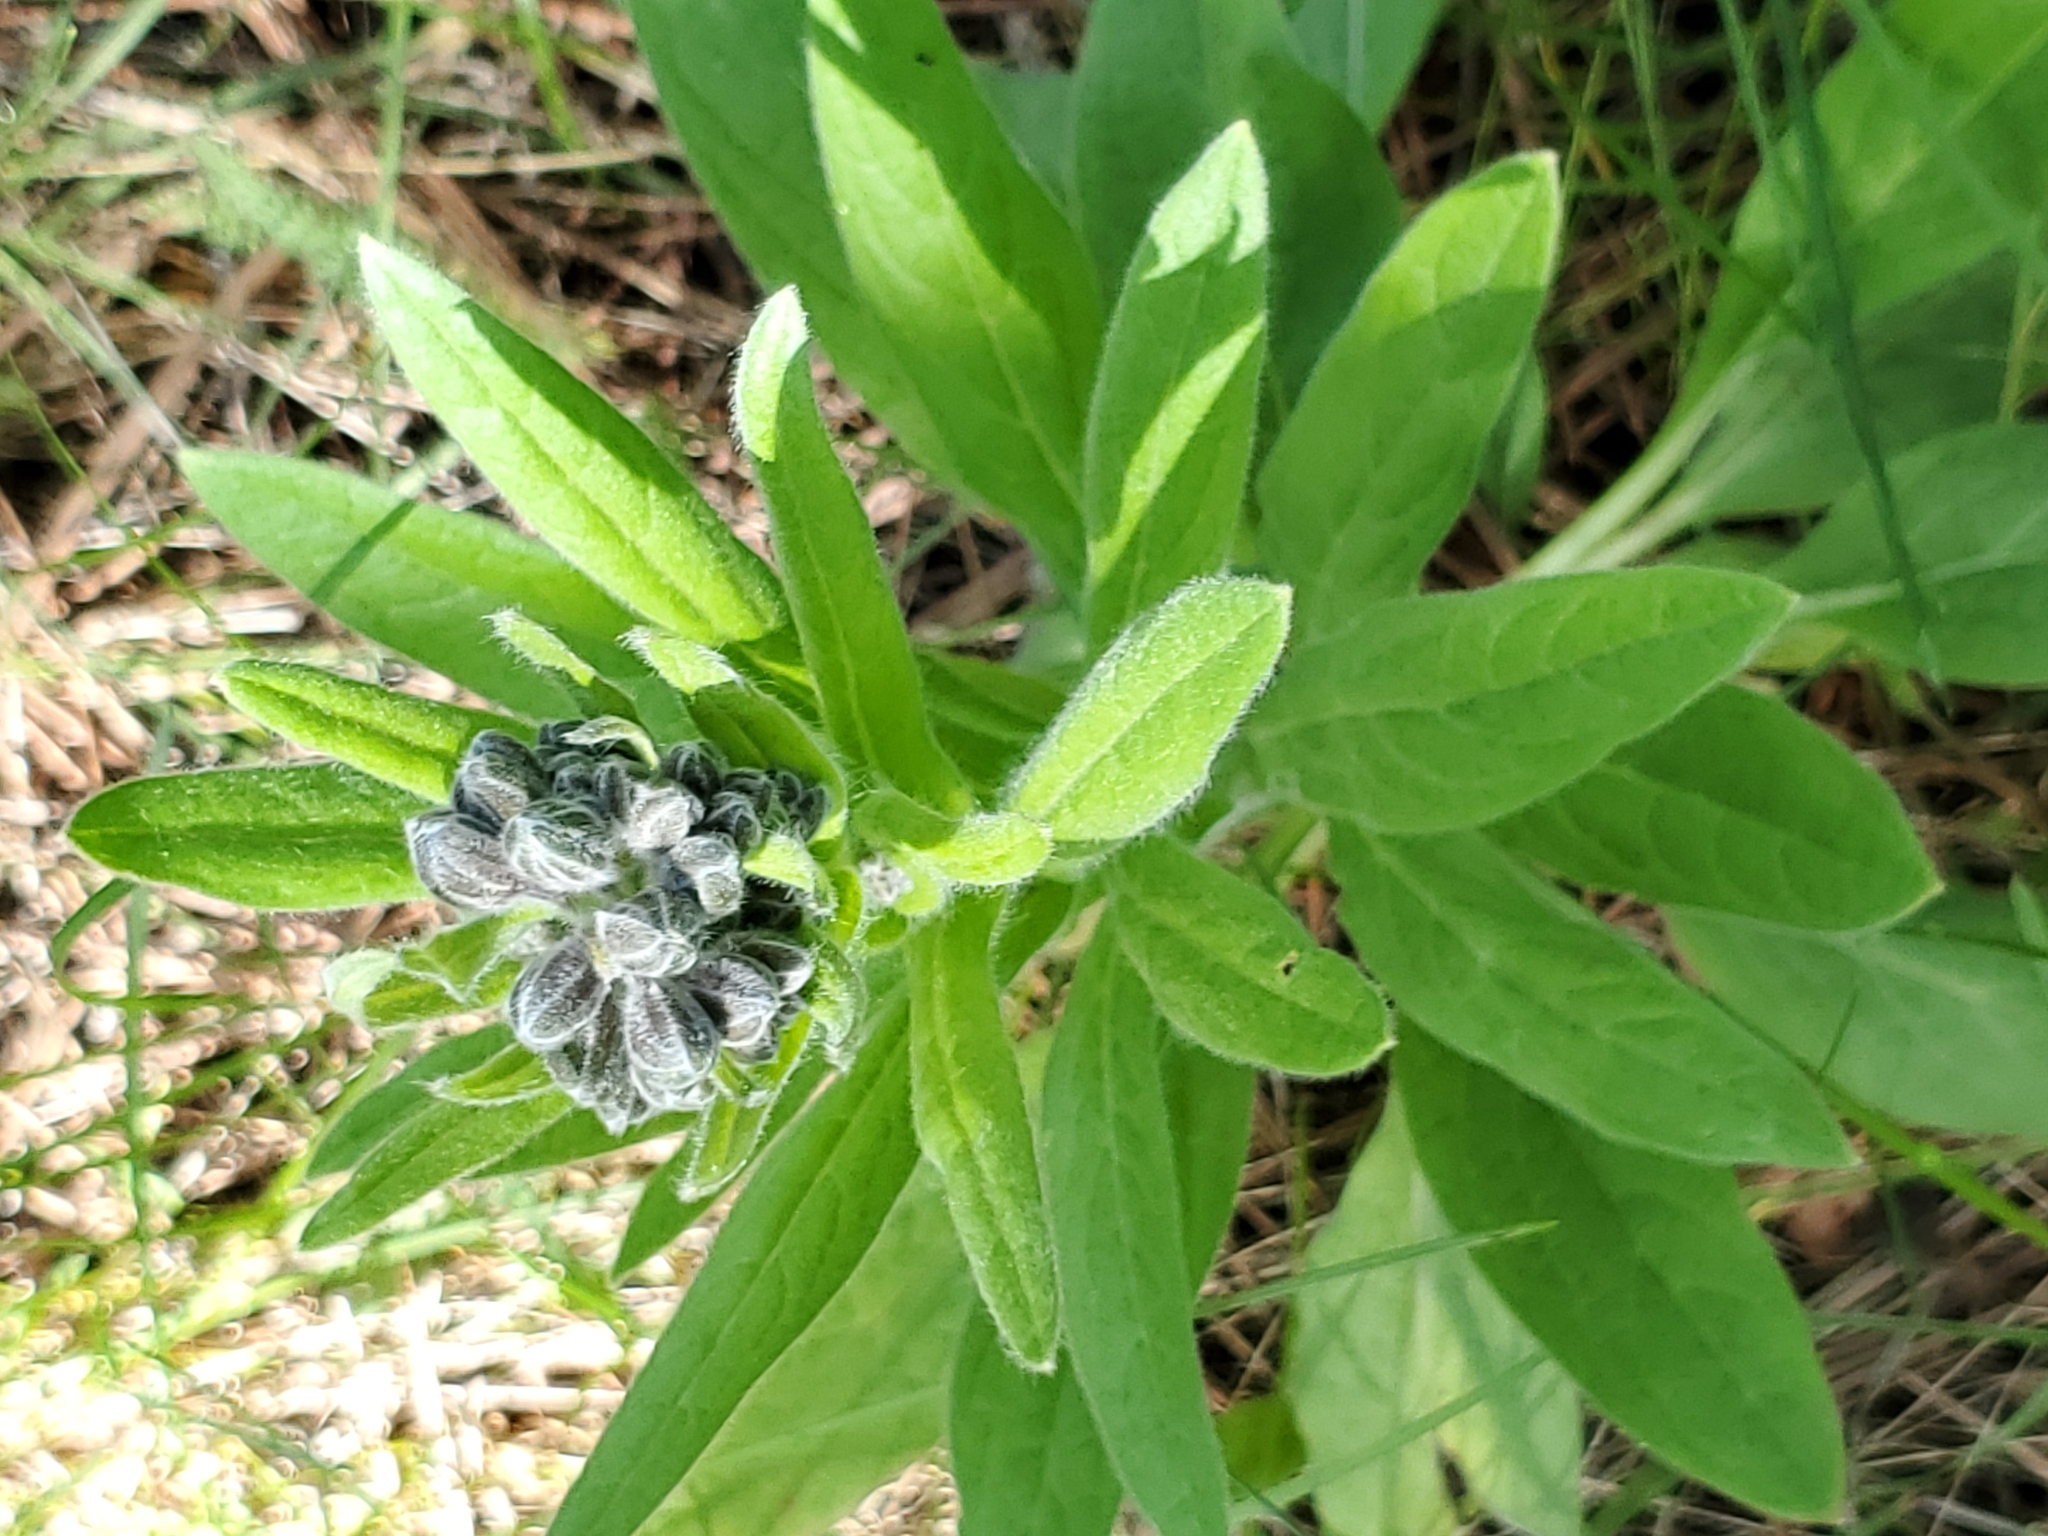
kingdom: Plantae
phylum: Tracheophyta
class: Magnoliopsida
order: Boraginales
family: Boraginaceae
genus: Cynoglossum
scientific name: Cynoglossum officinale
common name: Hound's-tongue
